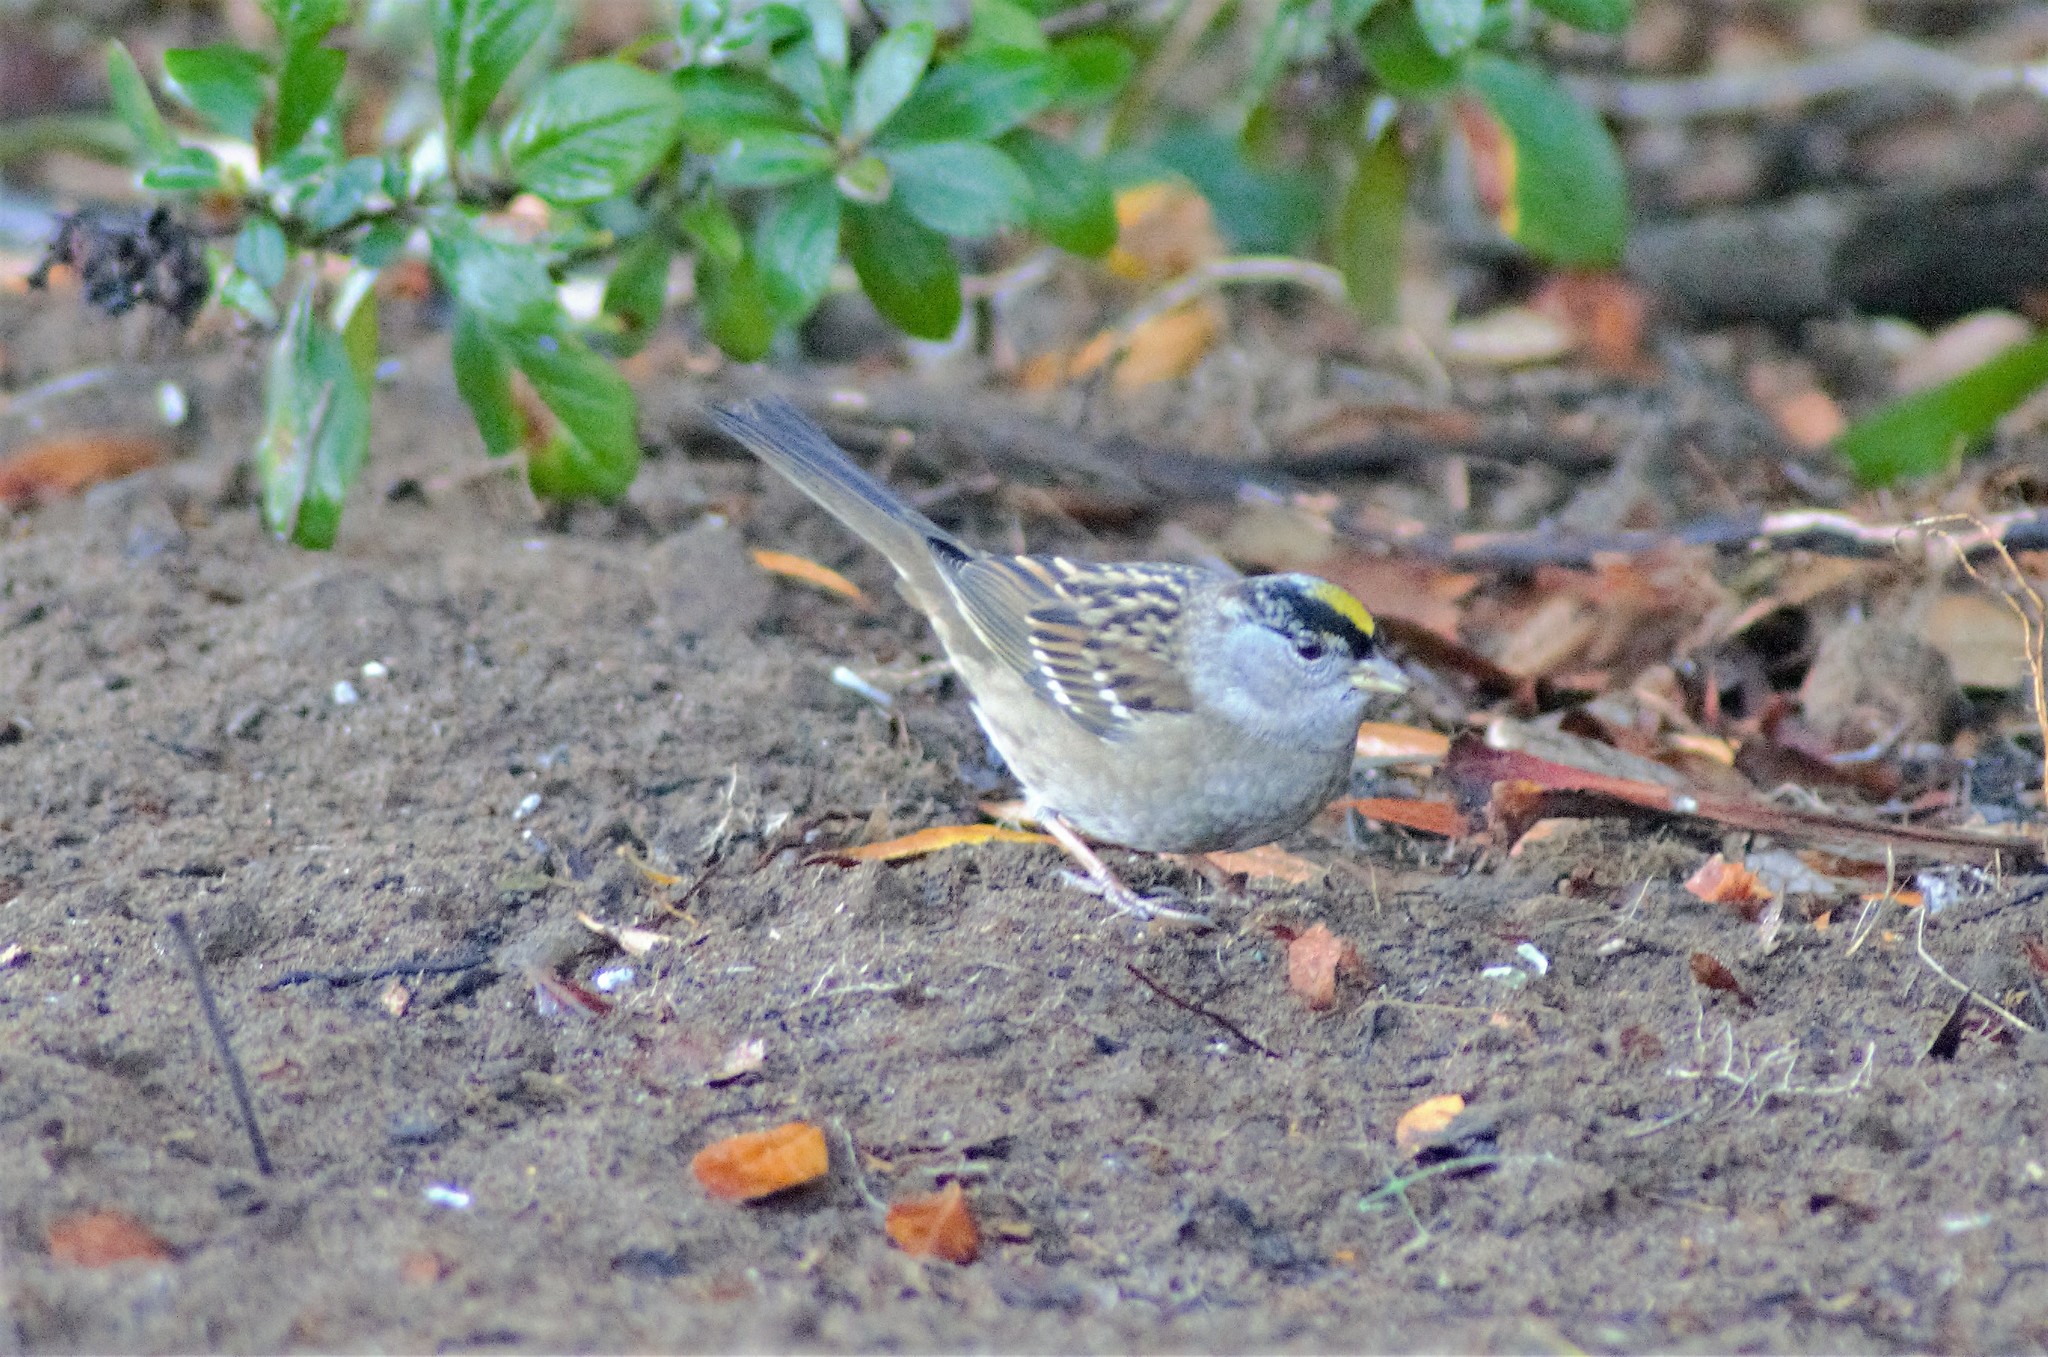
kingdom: Animalia
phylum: Chordata
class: Aves
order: Passeriformes
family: Passerellidae
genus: Zonotrichia
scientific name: Zonotrichia atricapilla
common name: Golden-crowned sparrow
